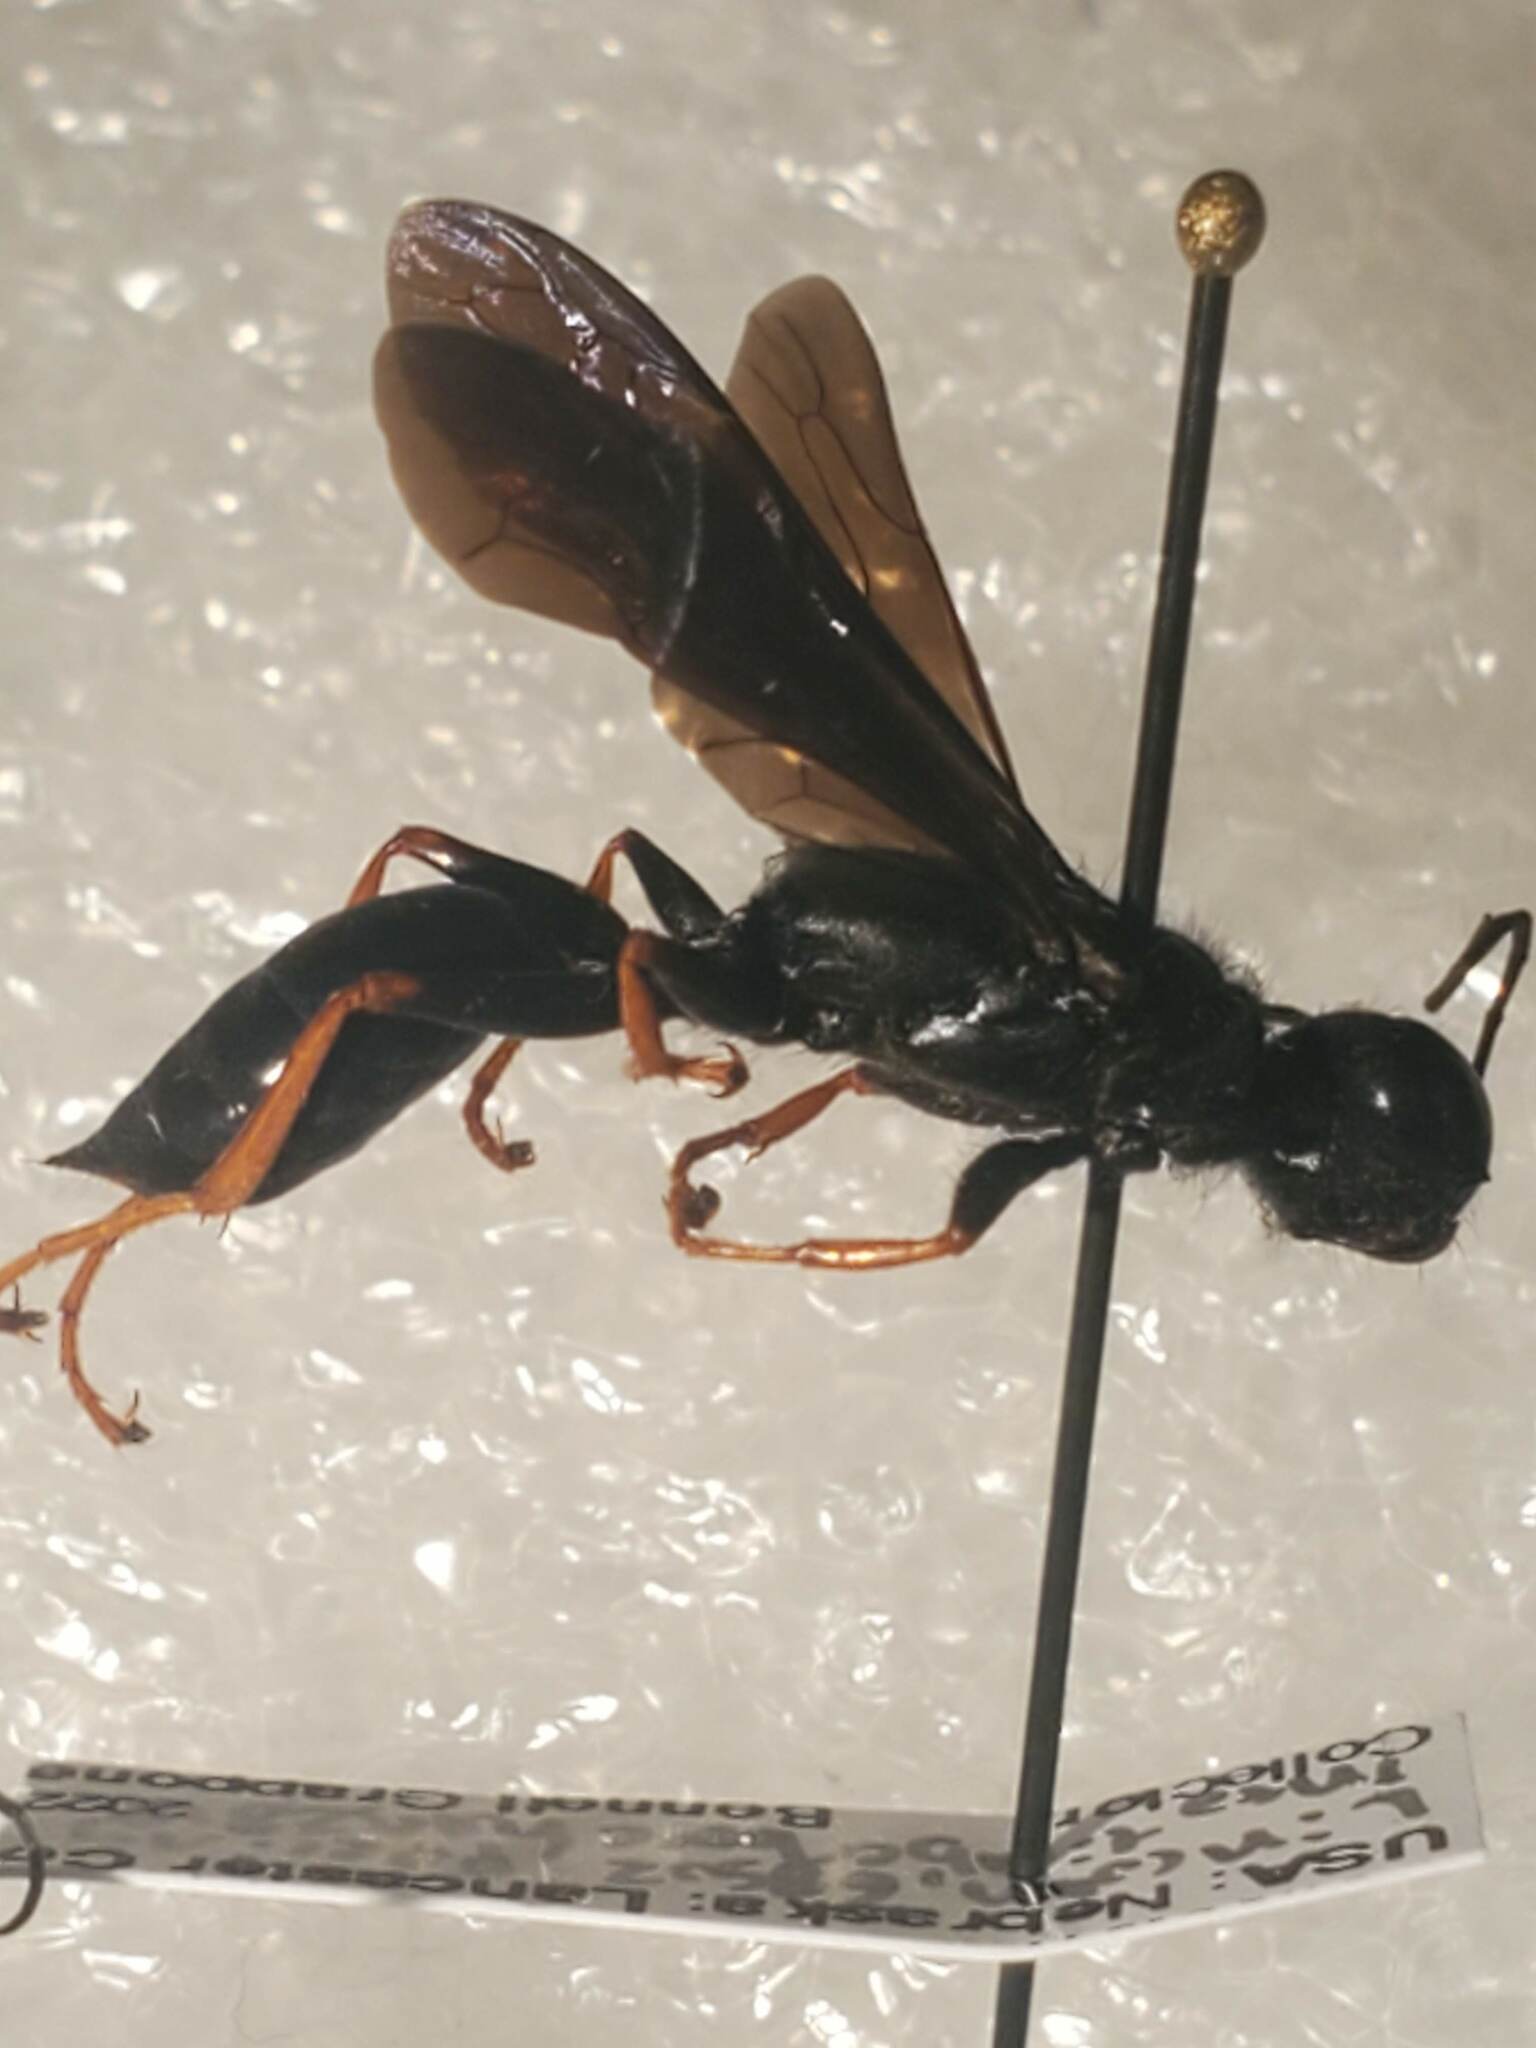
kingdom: Animalia
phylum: Arthropoda
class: Insecta
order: Hymenoptera
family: Sphecidae
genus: Podium
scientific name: Podium luctuosum
